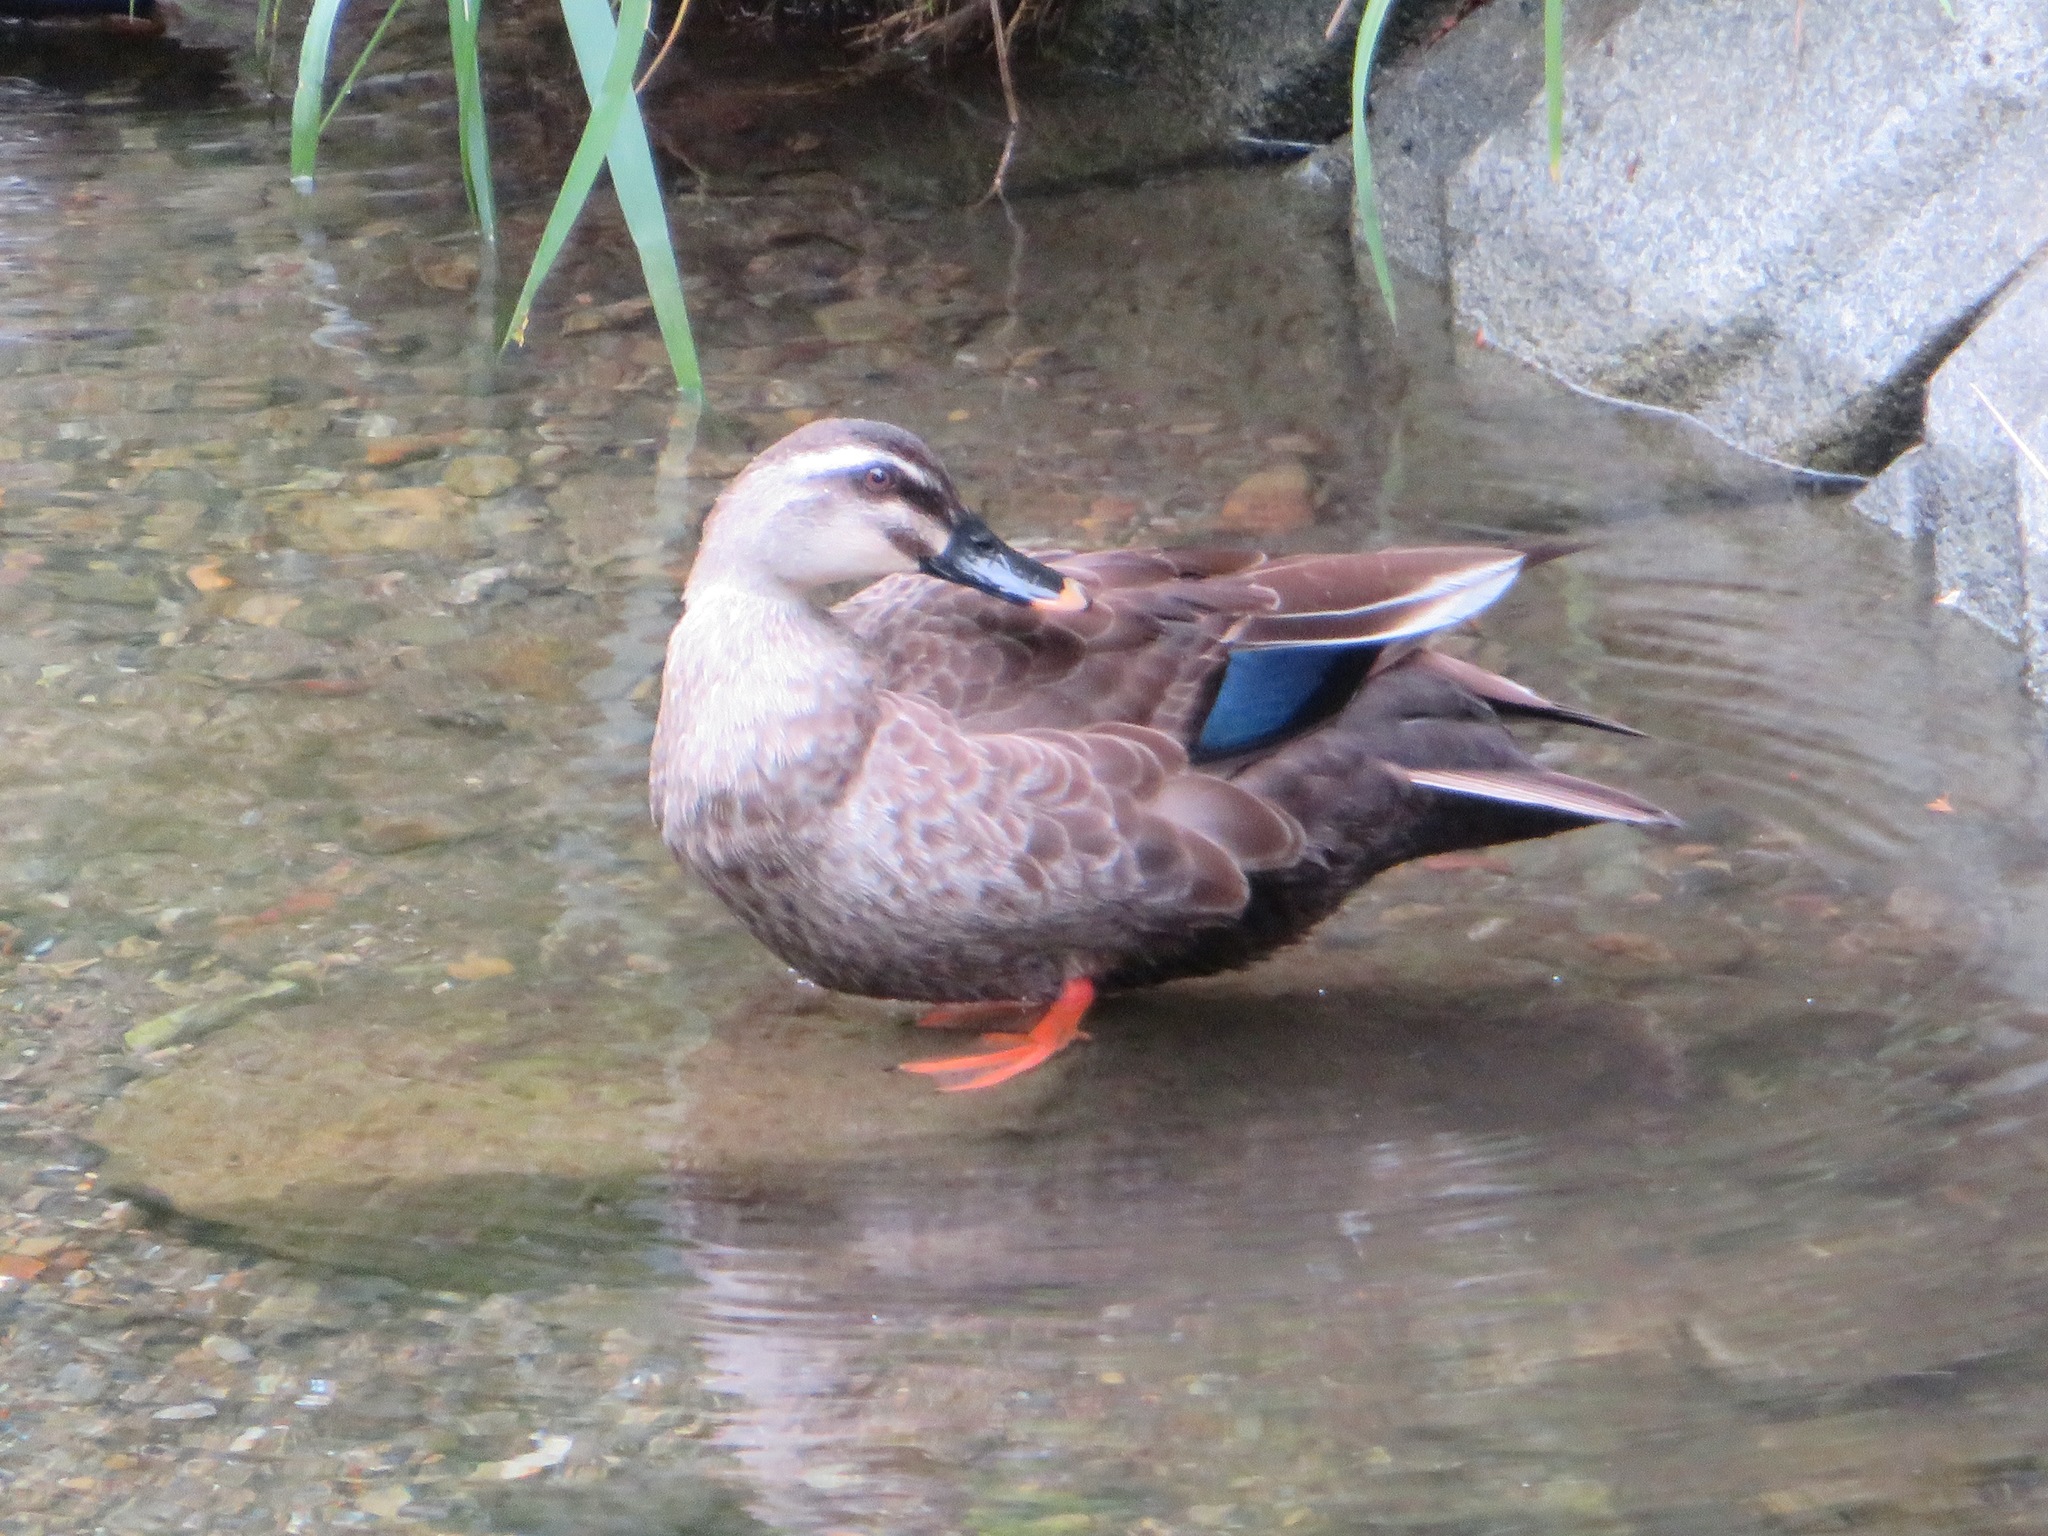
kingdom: Animalia
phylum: Chordata
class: Aves
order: Anseriformes
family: Anatidae
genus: Anas
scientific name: Anas zonorhyncha
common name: Eastern spot-billed duck
